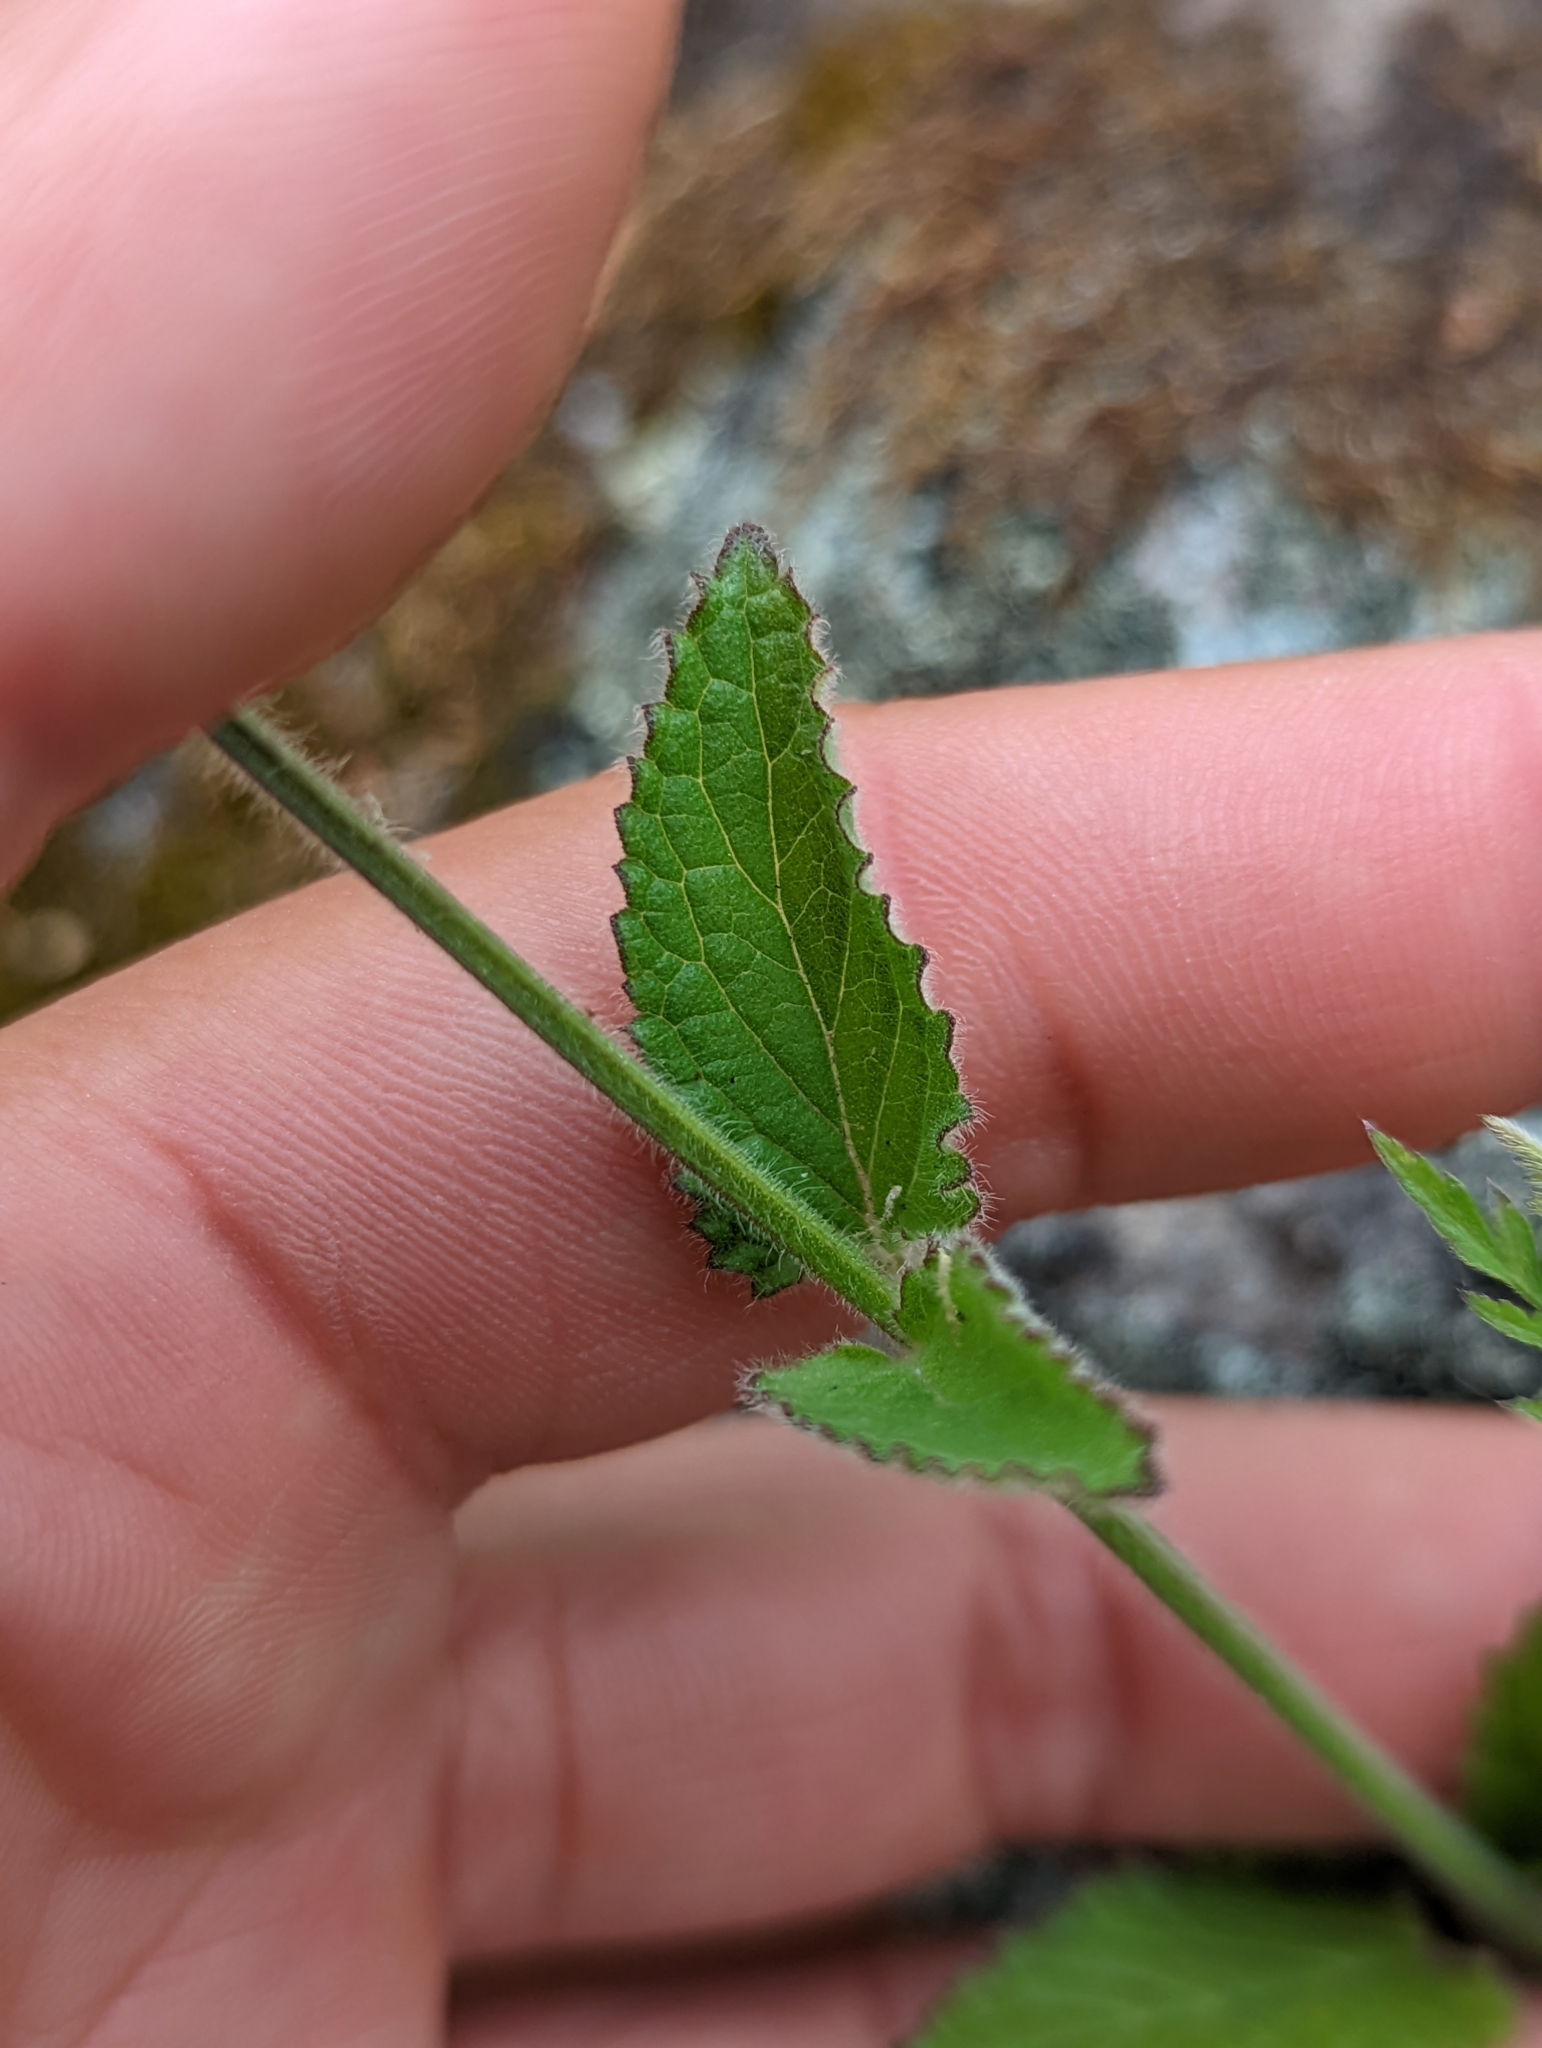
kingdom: Plantae
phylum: Tracheophyta
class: Magnoliopsida
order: Lamiales
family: Lamiaceae
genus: Stachys
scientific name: Stachys rigida
